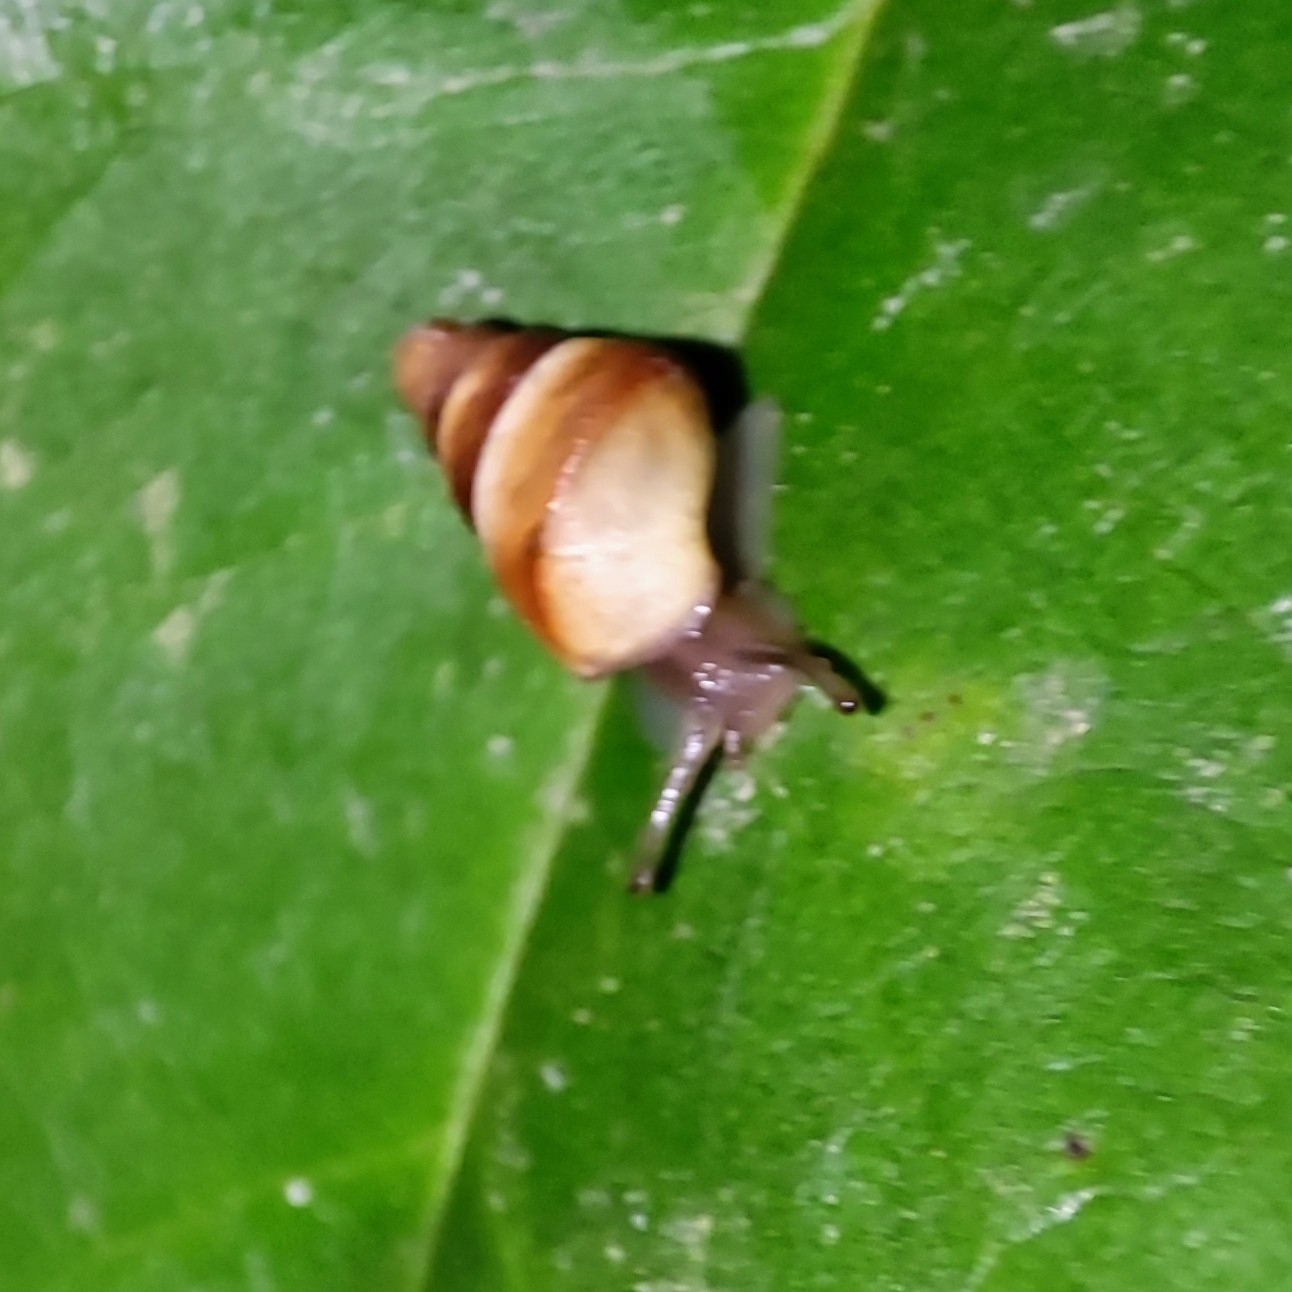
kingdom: Animalia
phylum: Mollusca
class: Gastropoda
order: Stylommatophora
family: Enidae
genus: Caucasicola
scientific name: Caucasicola raddei
